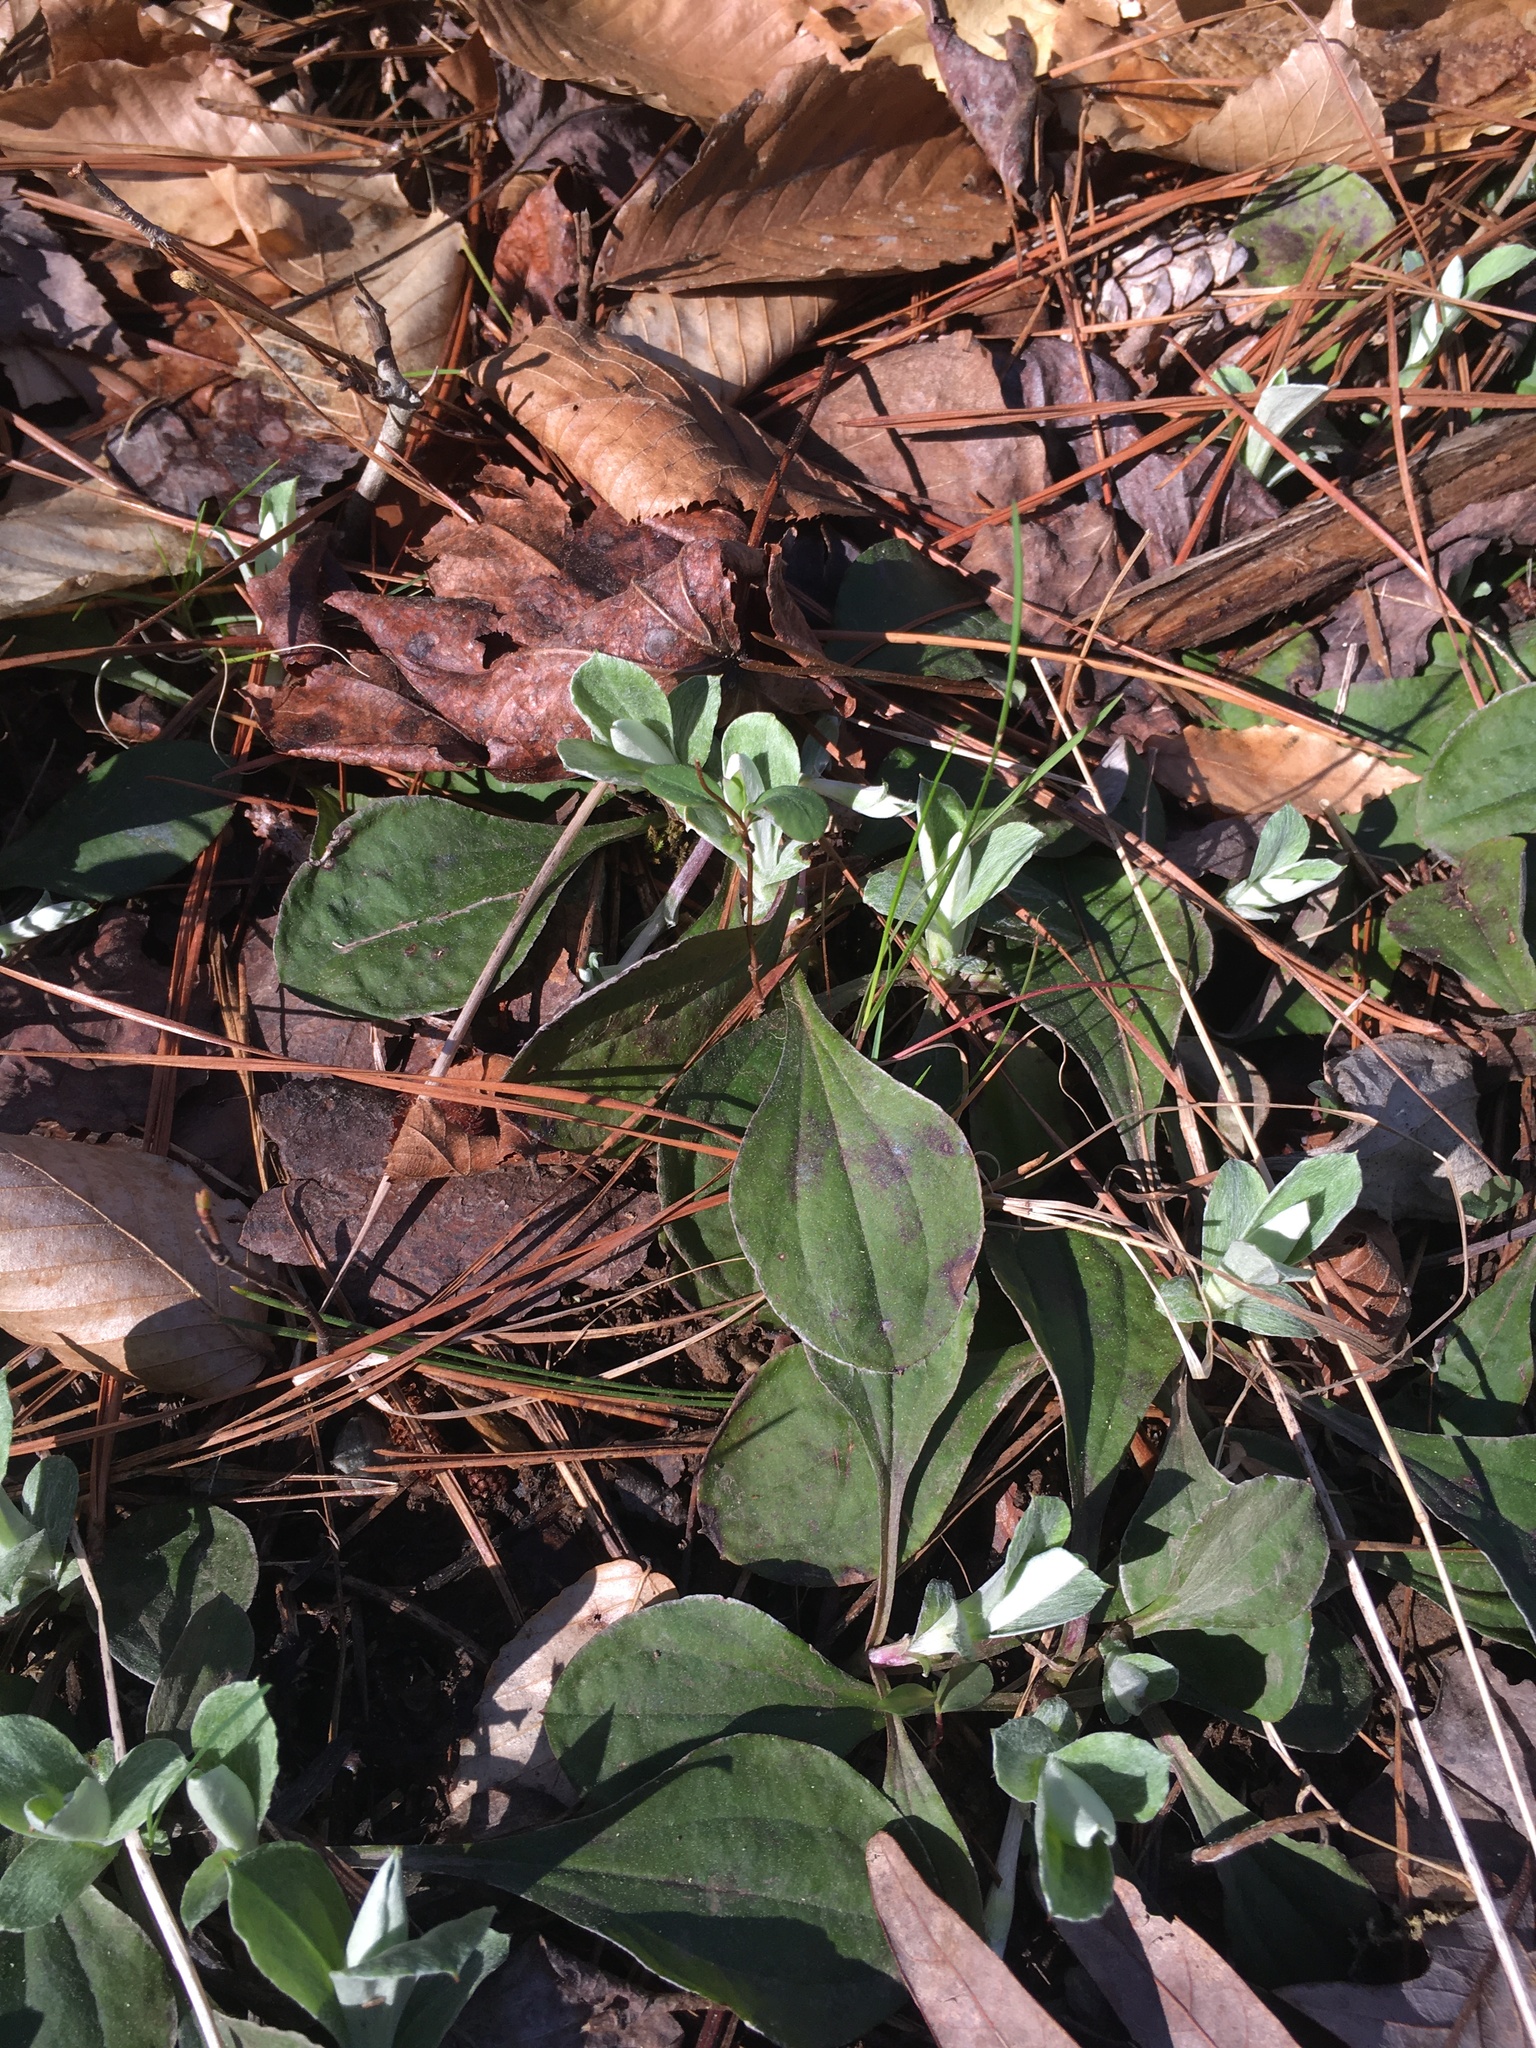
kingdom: Plantae
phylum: Tracheophyta
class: Magnoliopsida
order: Asterales
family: Asteraceae
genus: Antennaria
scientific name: Antennaria plantaginifolia
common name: Plantain-leaved pussytoes
